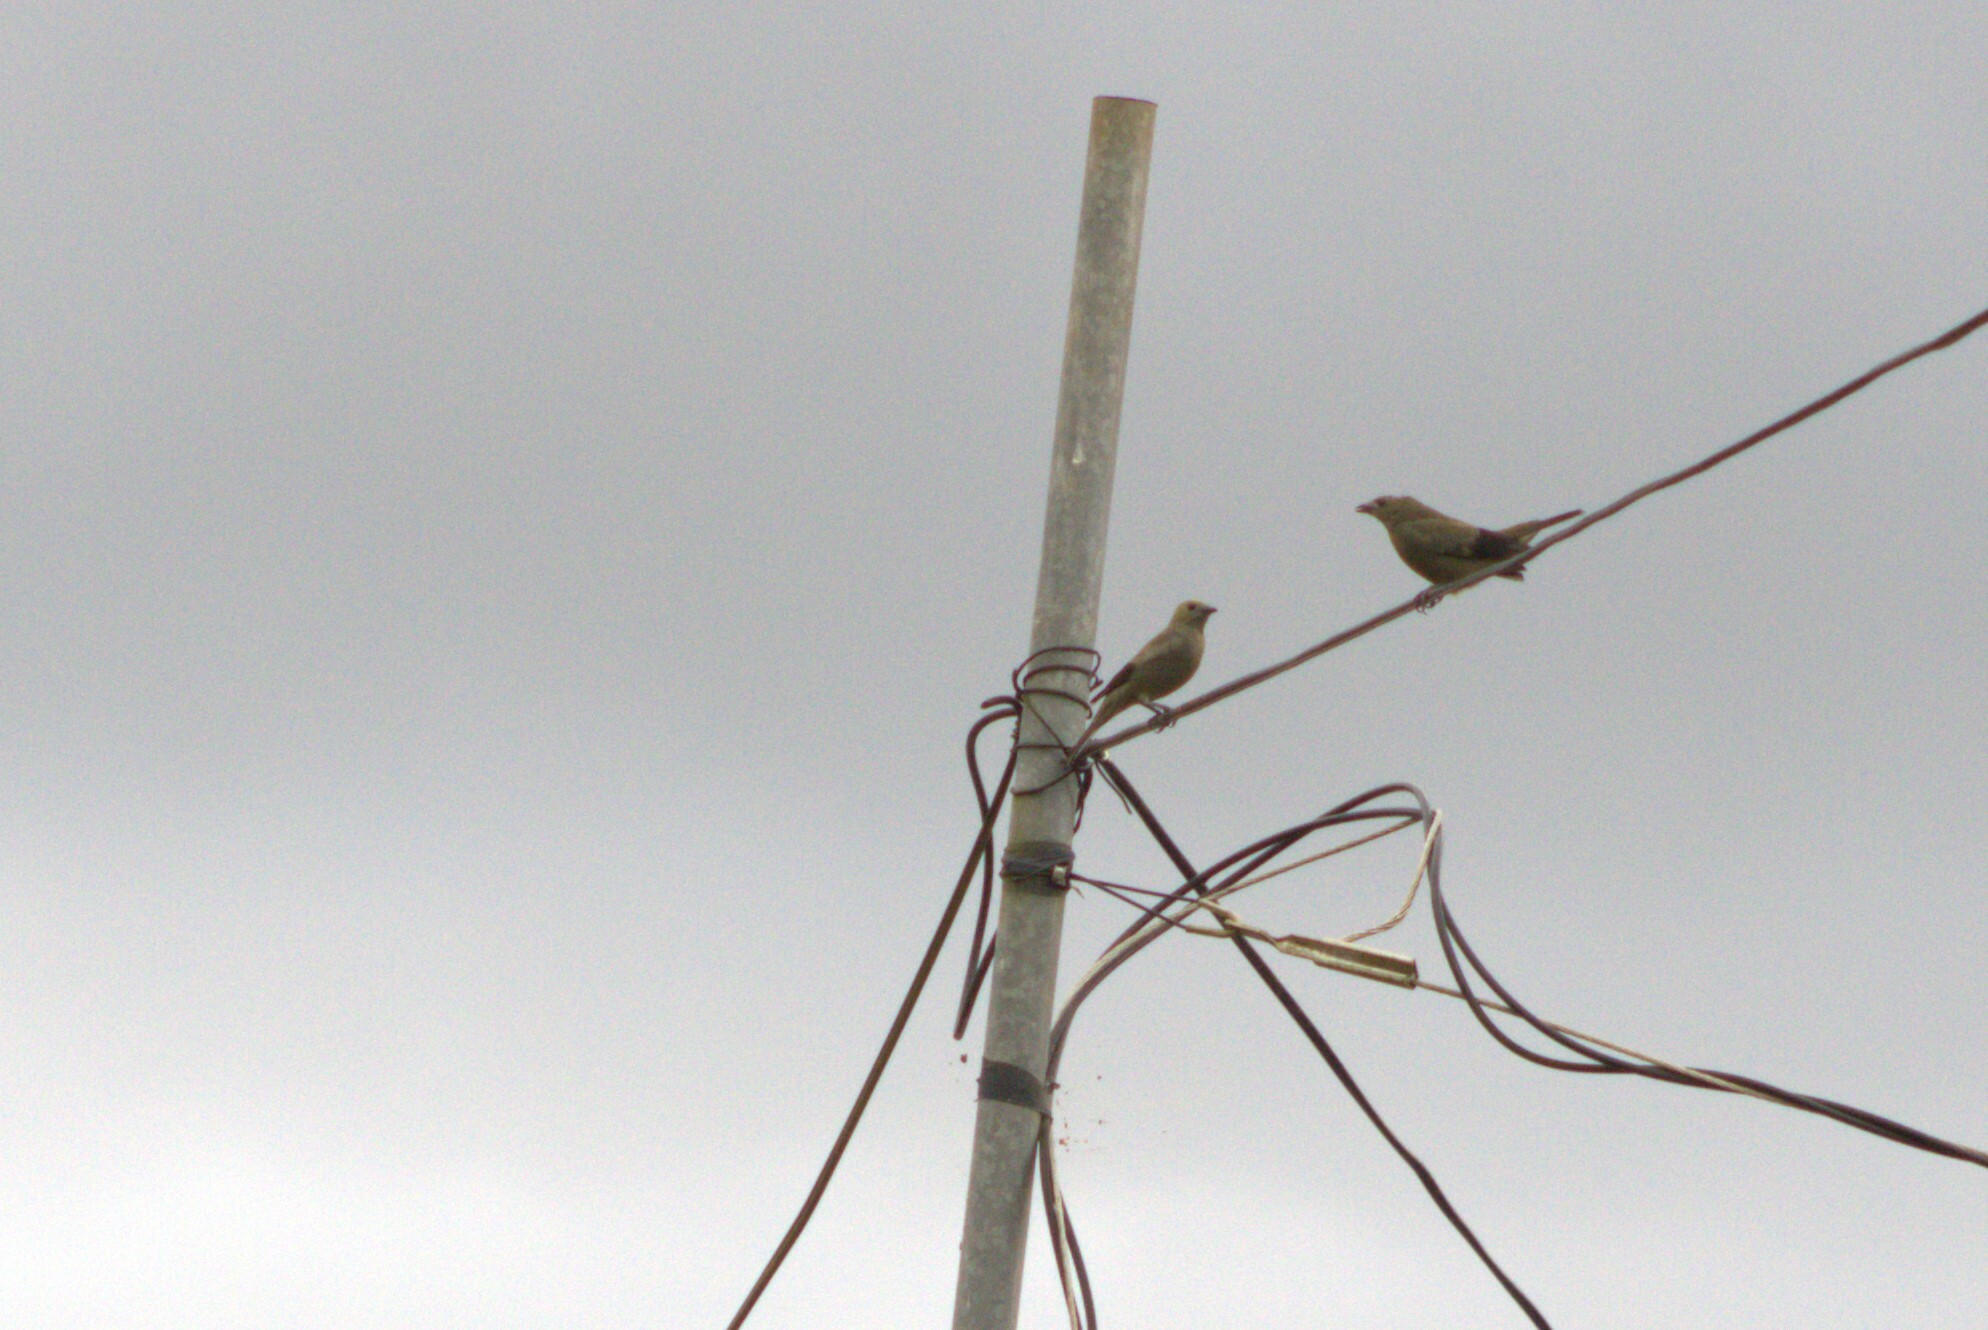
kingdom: Animalia
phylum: Chordata
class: Aves
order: Passeriformes
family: Thraupidae
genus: Thraupis
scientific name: Thraupis palmarum
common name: Palm tanager
